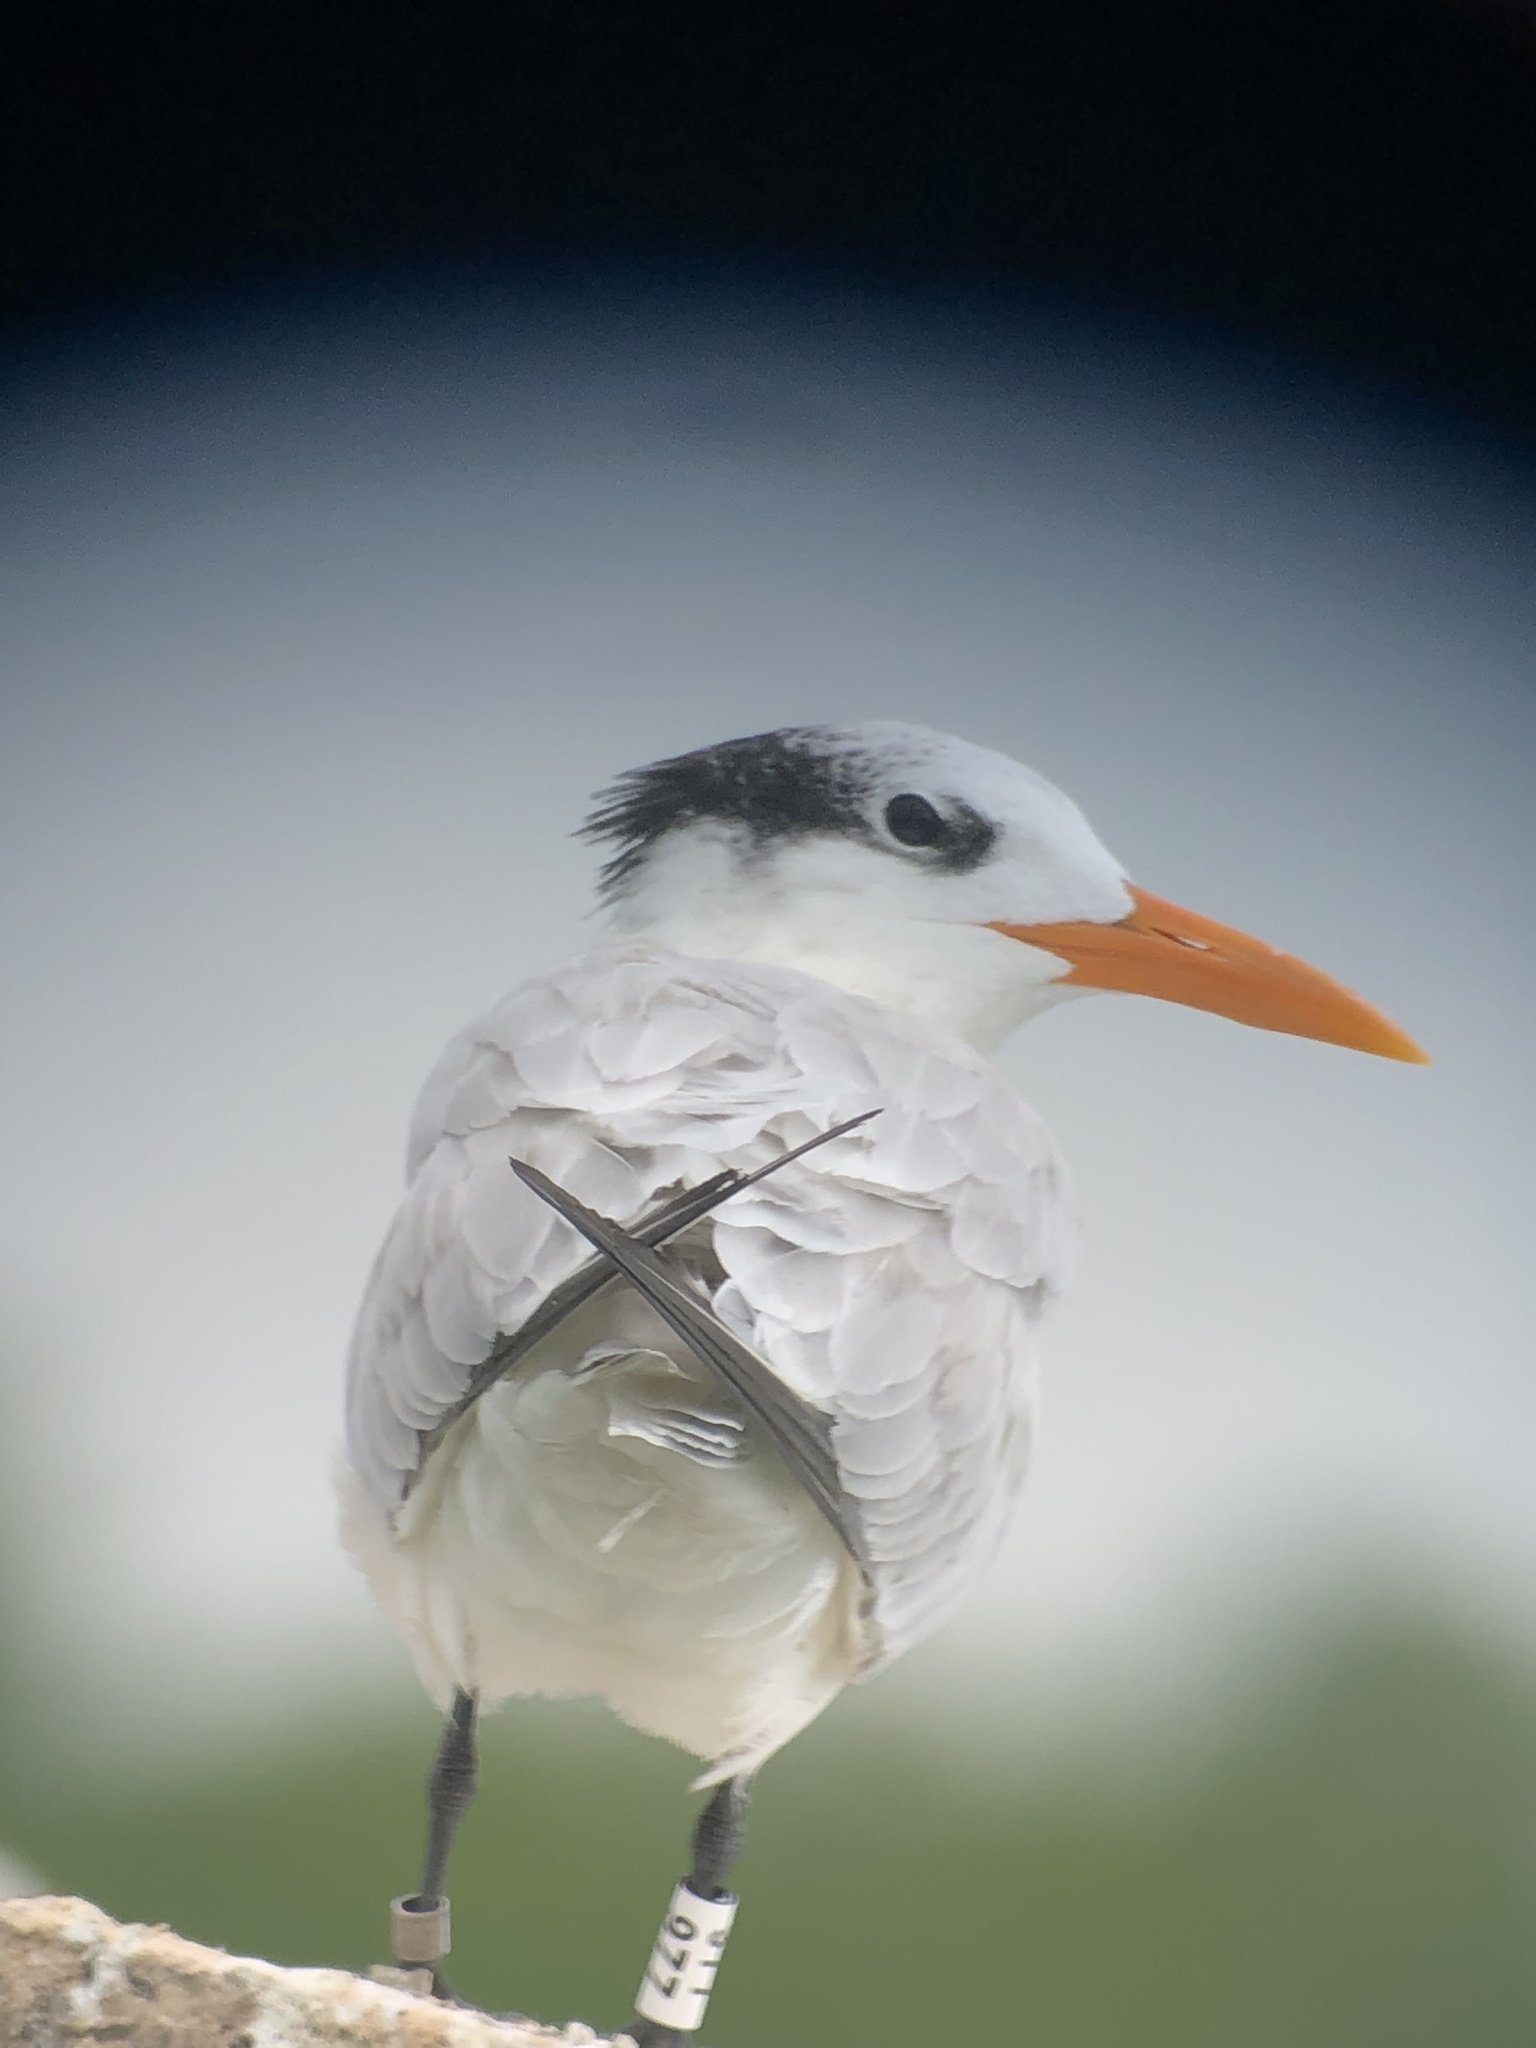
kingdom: Animalia
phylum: Chordata
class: Aves
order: Charadriiformes
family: Laridae
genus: Thalasseus
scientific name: Thalasseus maximus
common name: Royal tern
